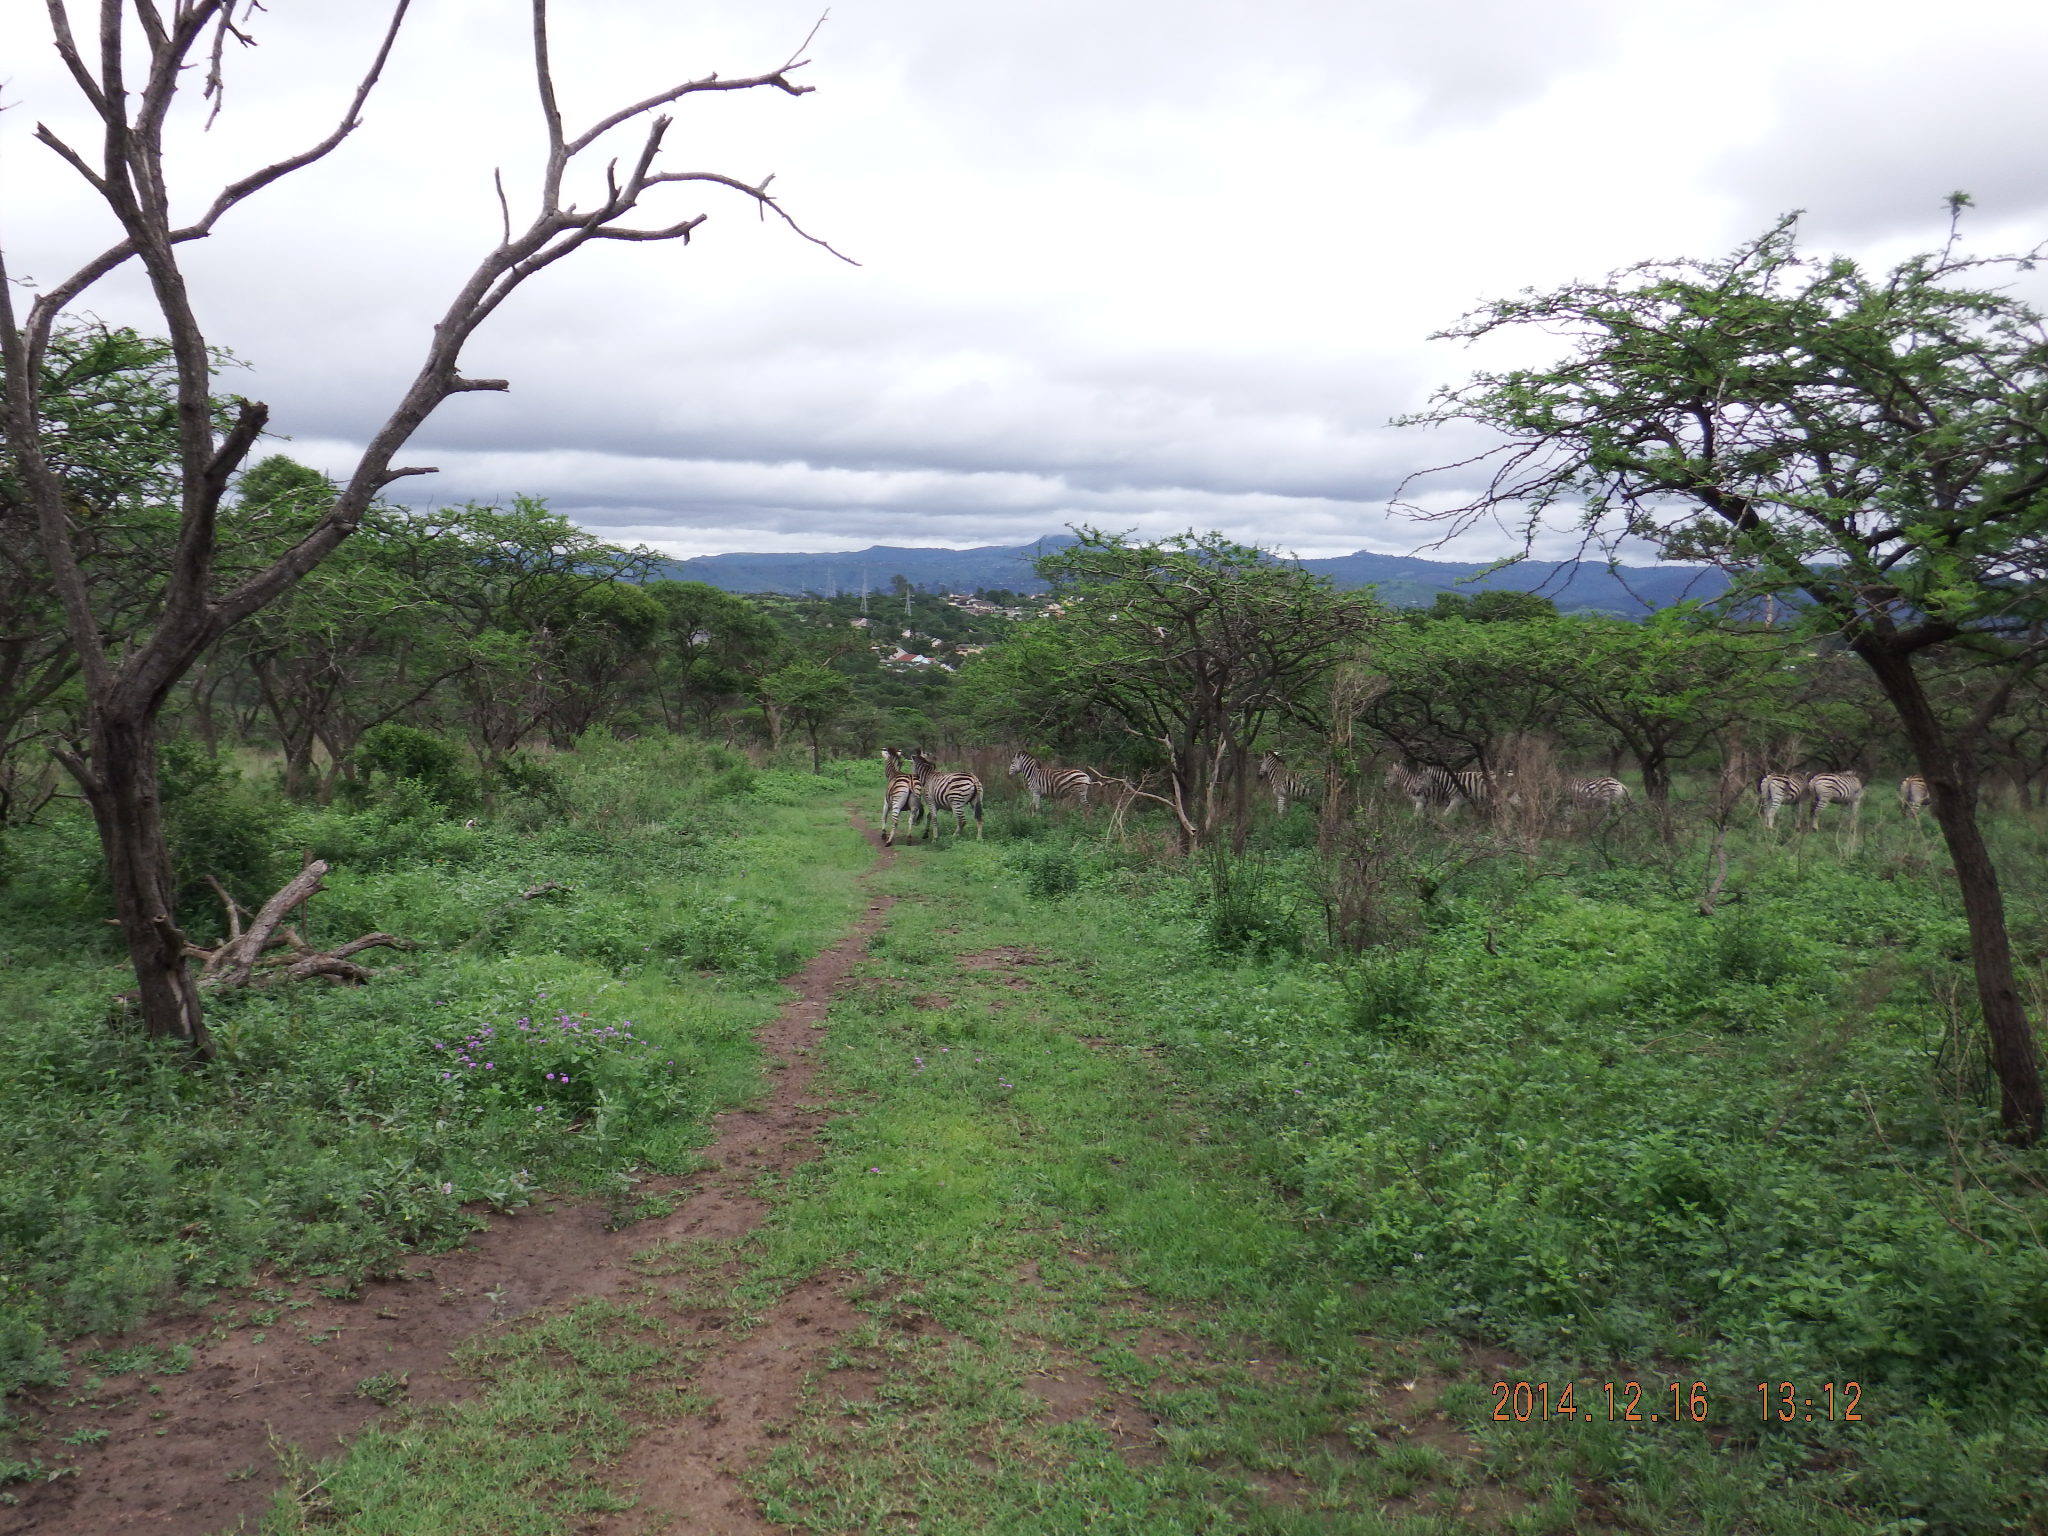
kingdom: Animalia
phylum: Chordata
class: Mammalia
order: Perissodactyla
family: Equidae
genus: Equus
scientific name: Equus quagga
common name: Plains zebra
